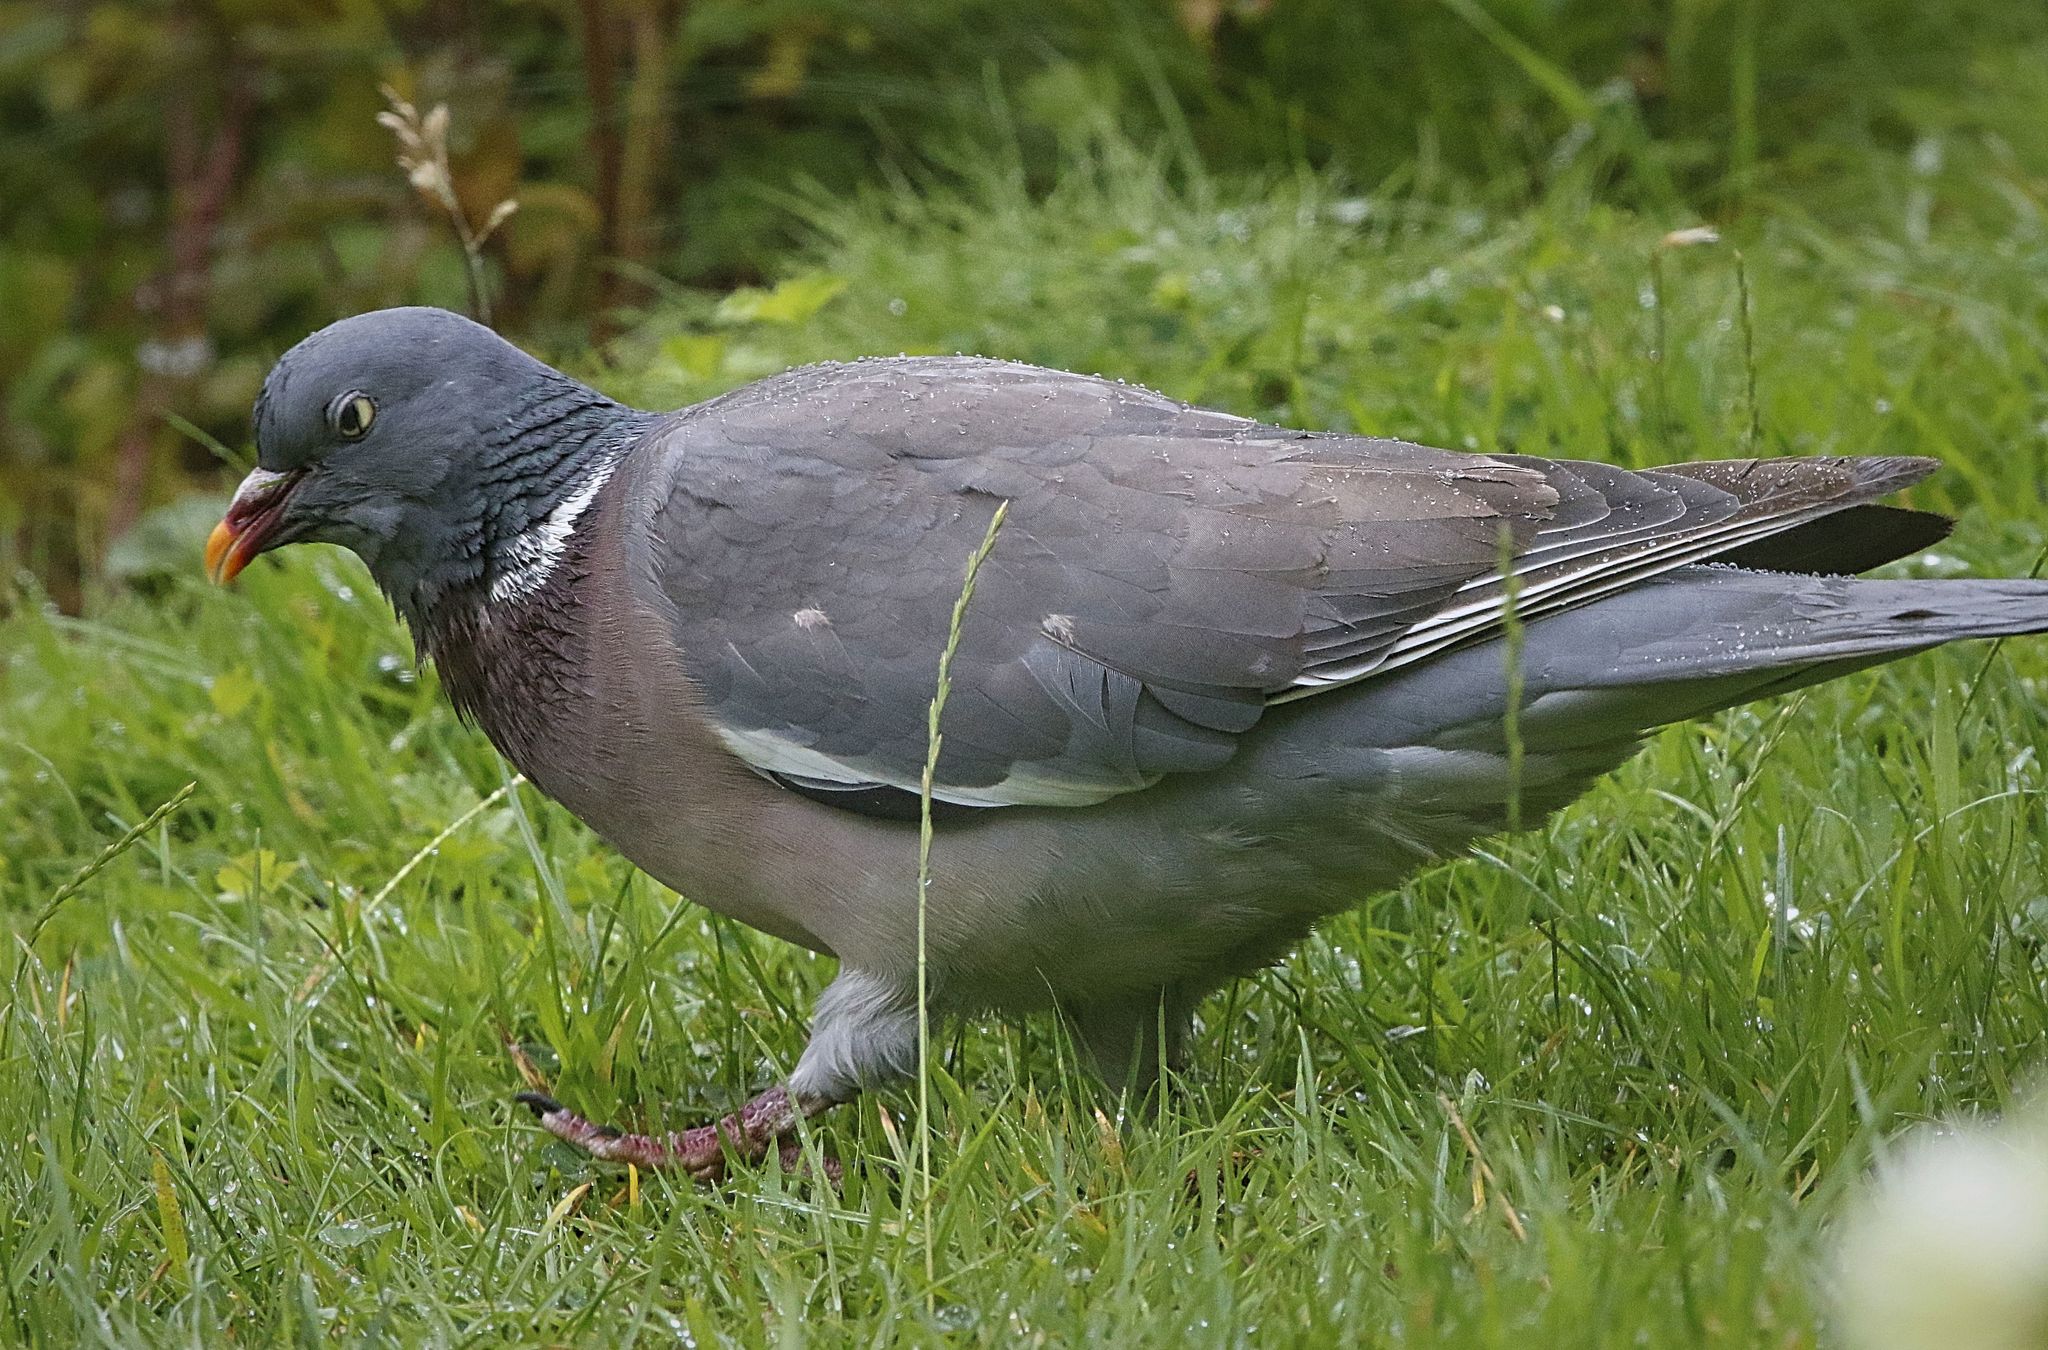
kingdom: Animalia
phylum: Chordata
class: Aves
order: Columbiformes
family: Columbidae
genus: Columba
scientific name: Columba palumbus
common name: Common wood pigeon
